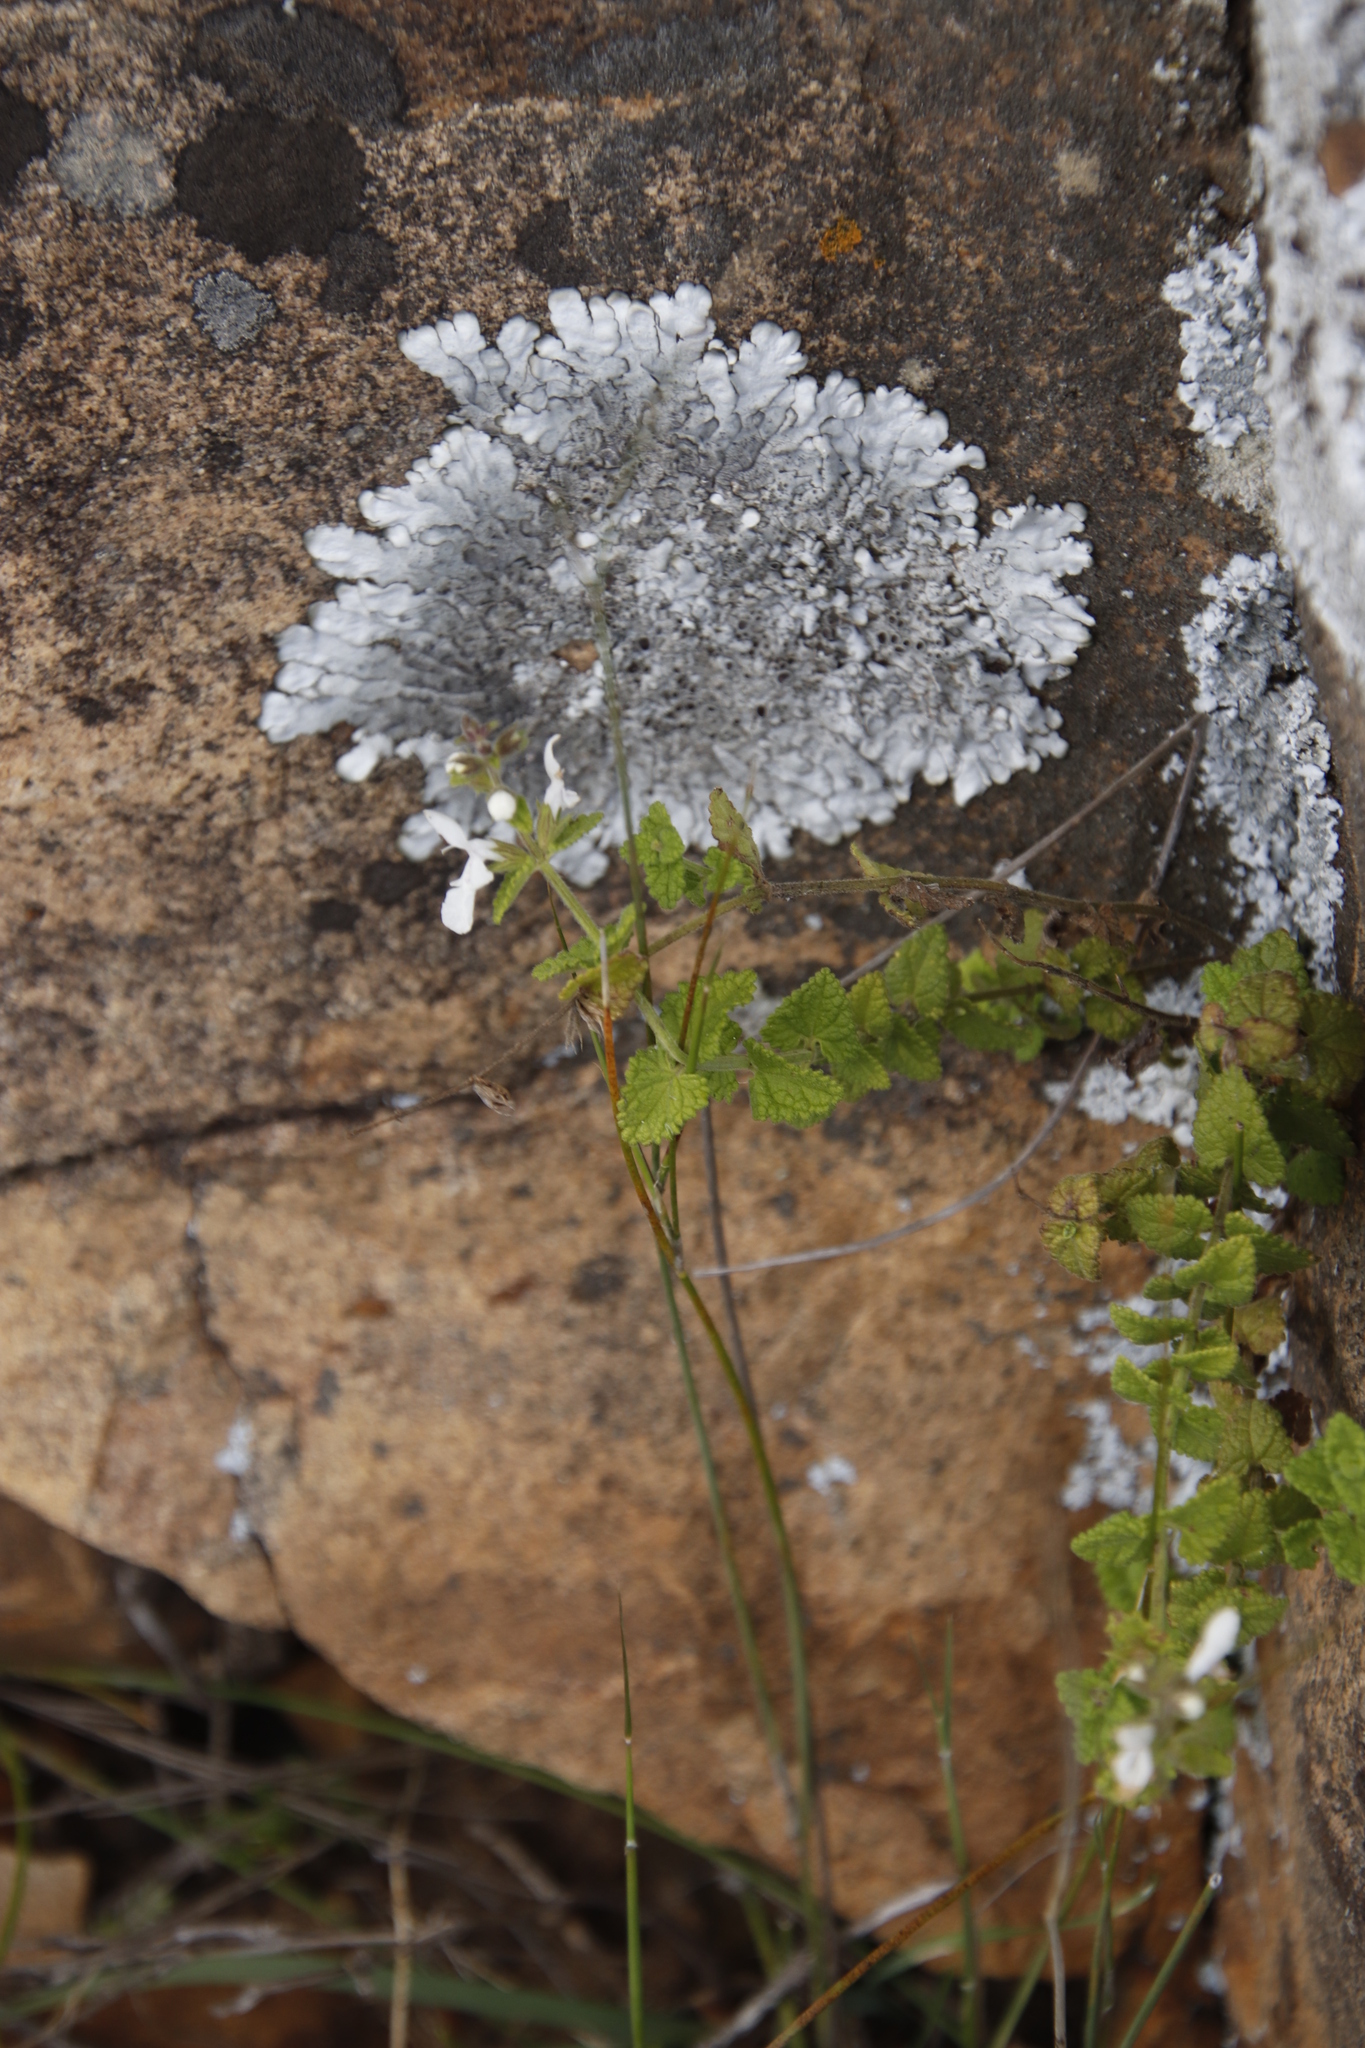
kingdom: Plantae
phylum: Tracheophyta
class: Magnoliopsida
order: Lamiales
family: Lamiaceae
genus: Stachys
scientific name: Stachys aethiopica
